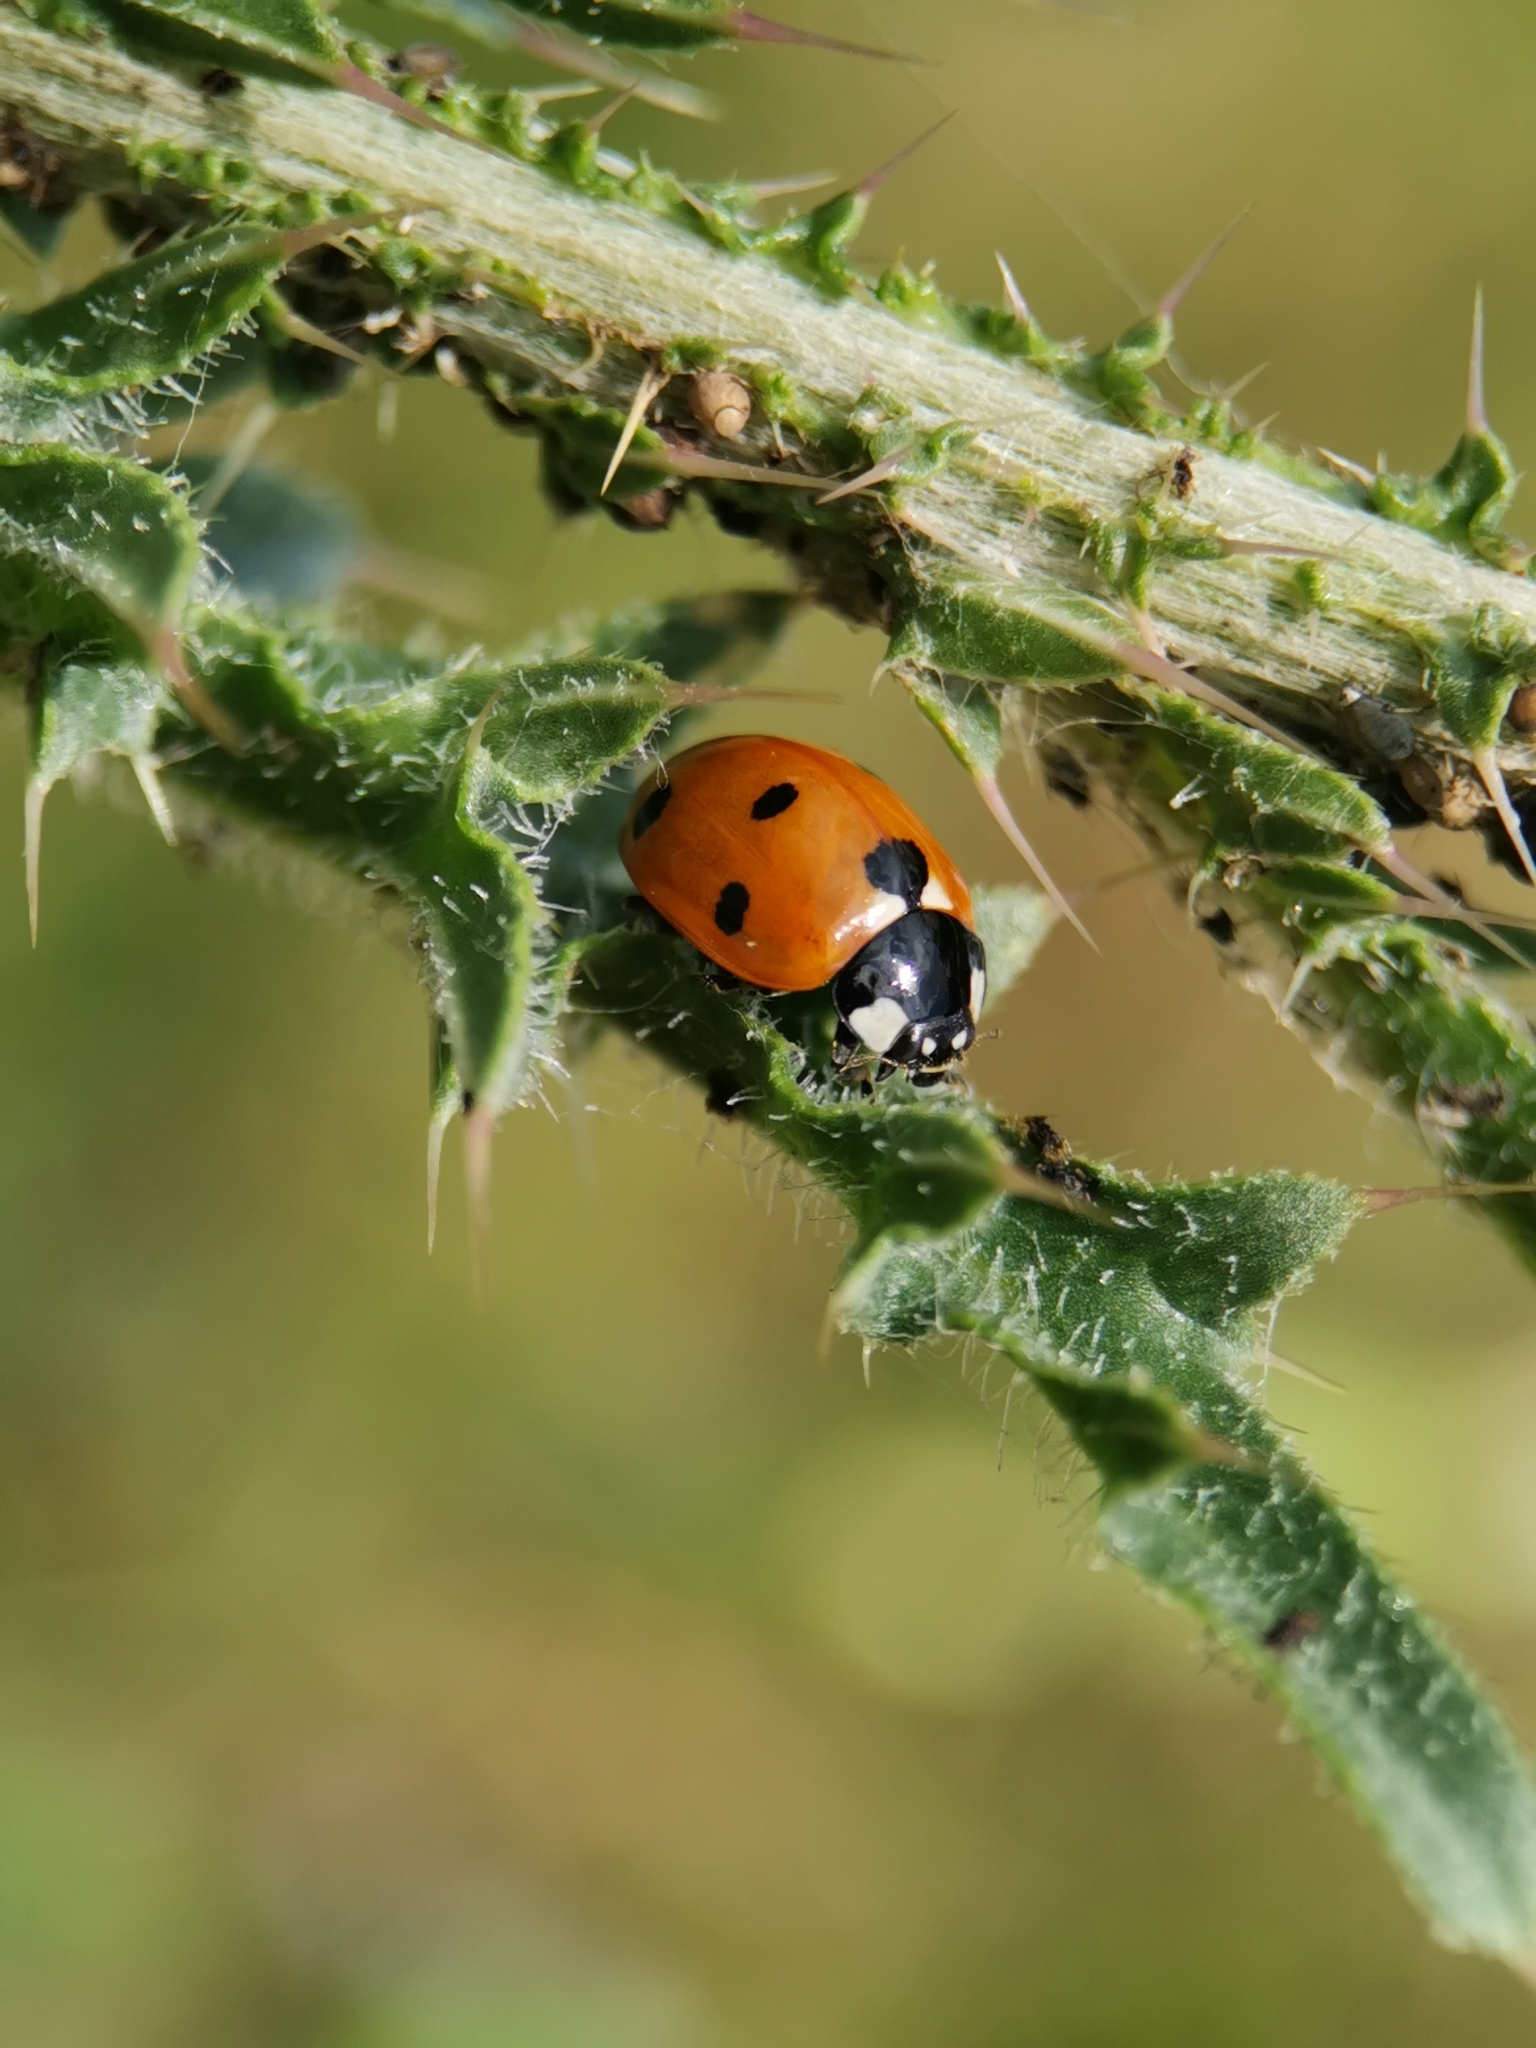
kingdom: Animalia
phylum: Arthropoda
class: Insecta
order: Coleoptera
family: Coccinellidae
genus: Coccinella
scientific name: Coccinella septempunctata
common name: Sevenspotted lady beetle
